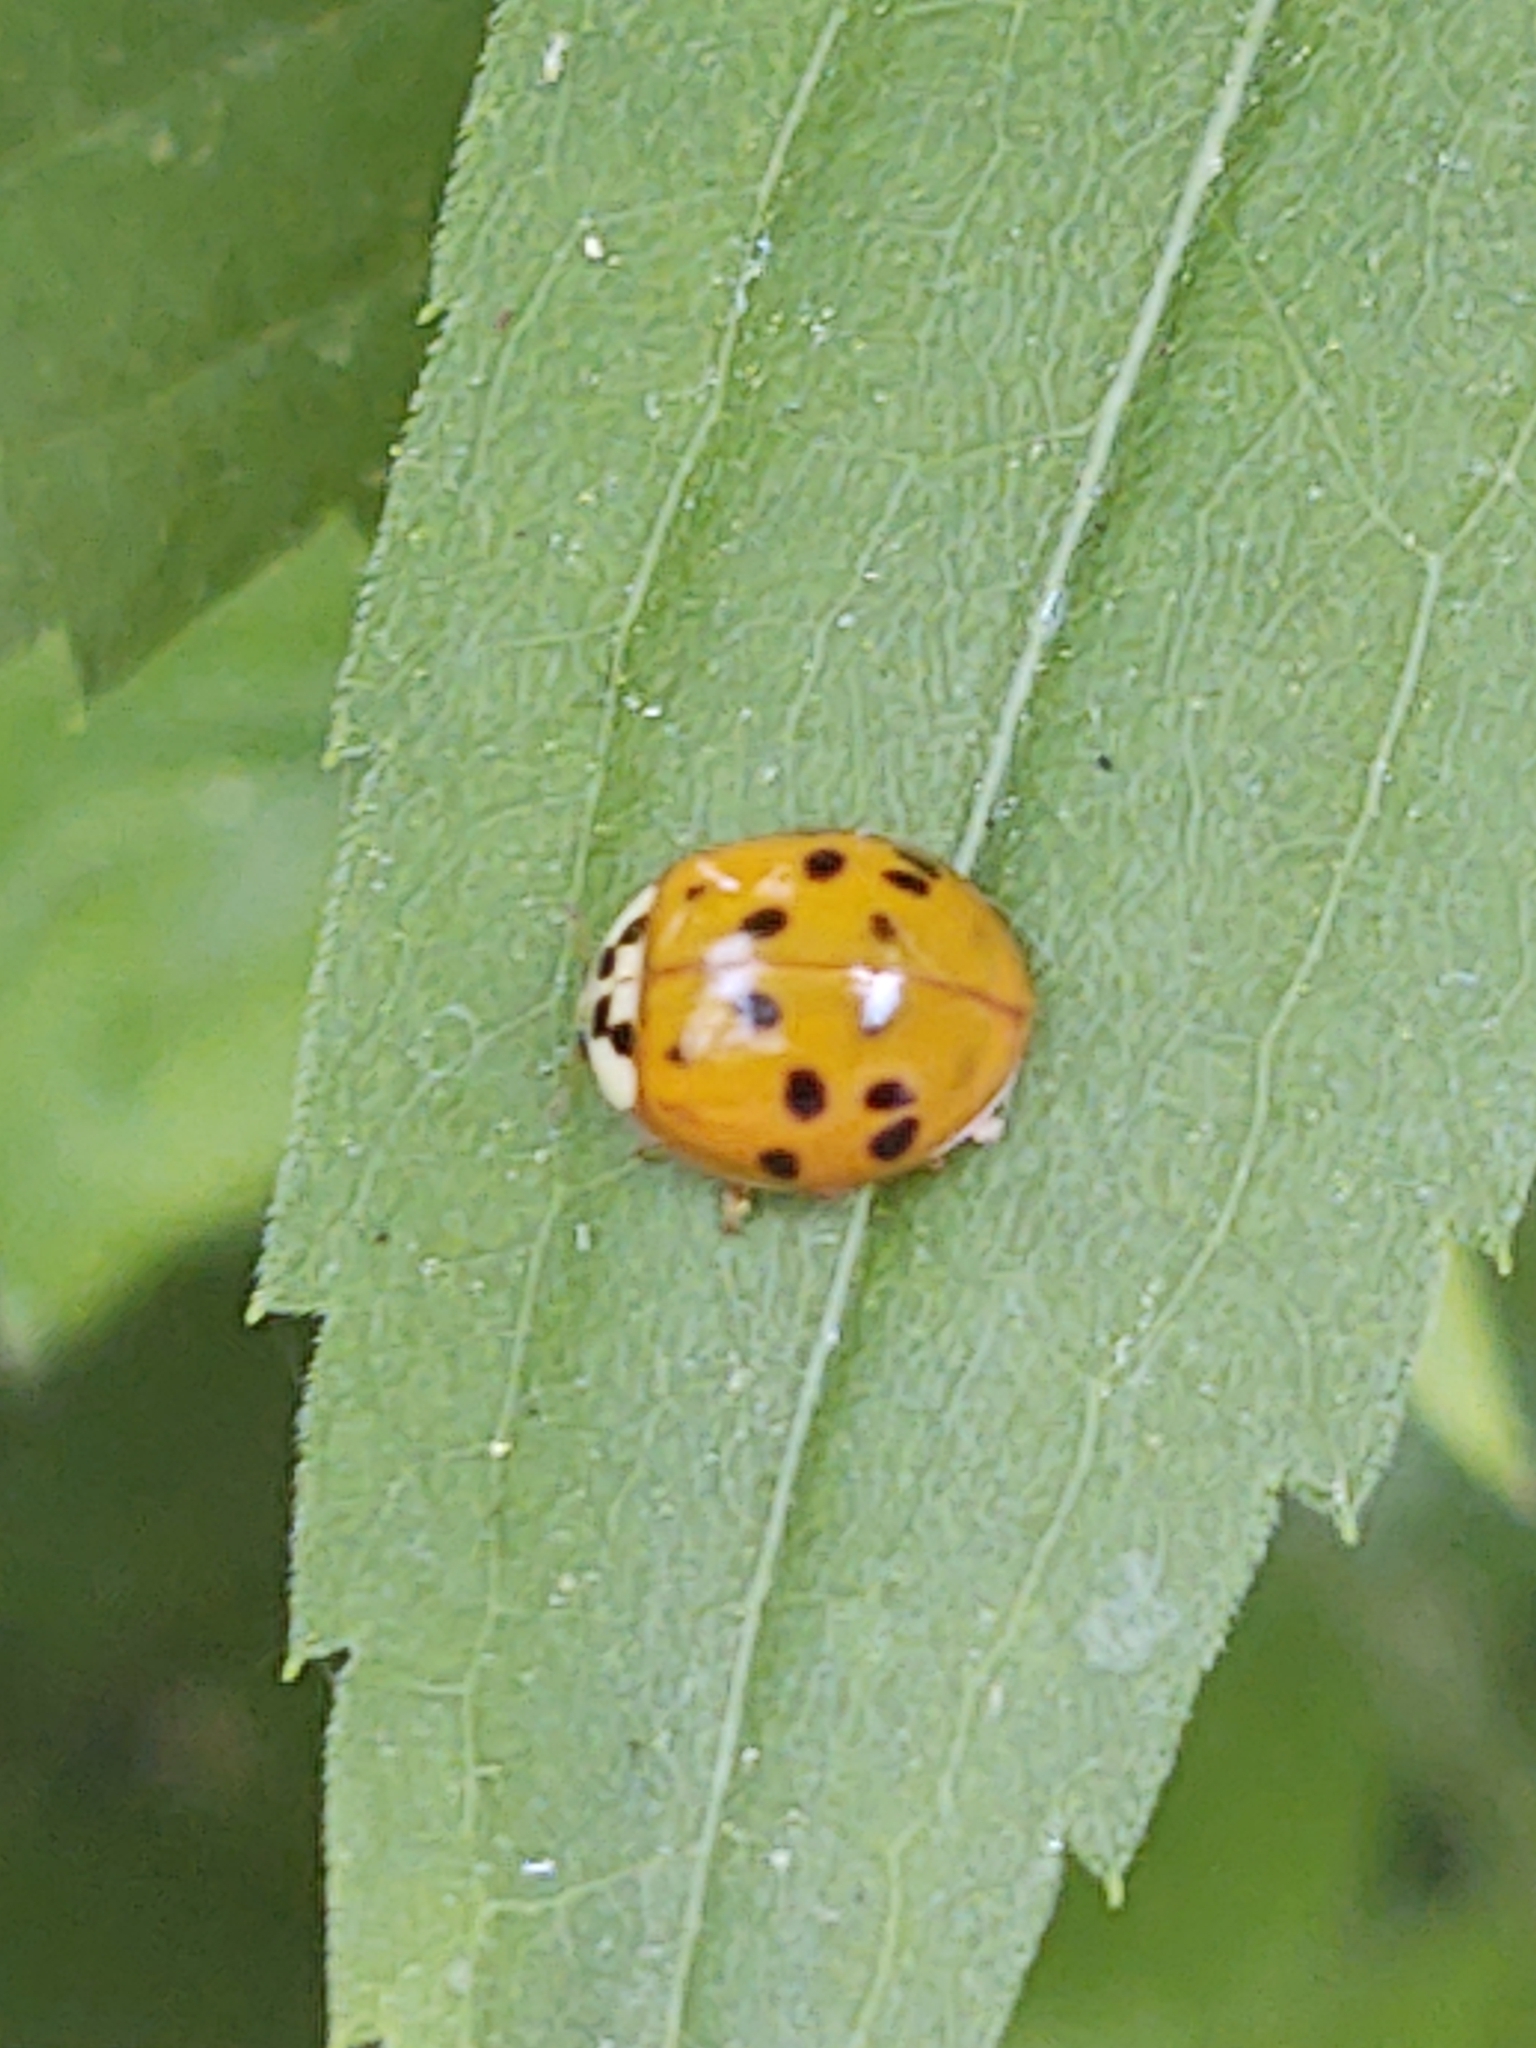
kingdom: Animalia
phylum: Arthropoda
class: Insecta
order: Coleoptera
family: Coccinellidae
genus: Harmonia
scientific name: Harmonia axyridis
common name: Harlequin ladybird
